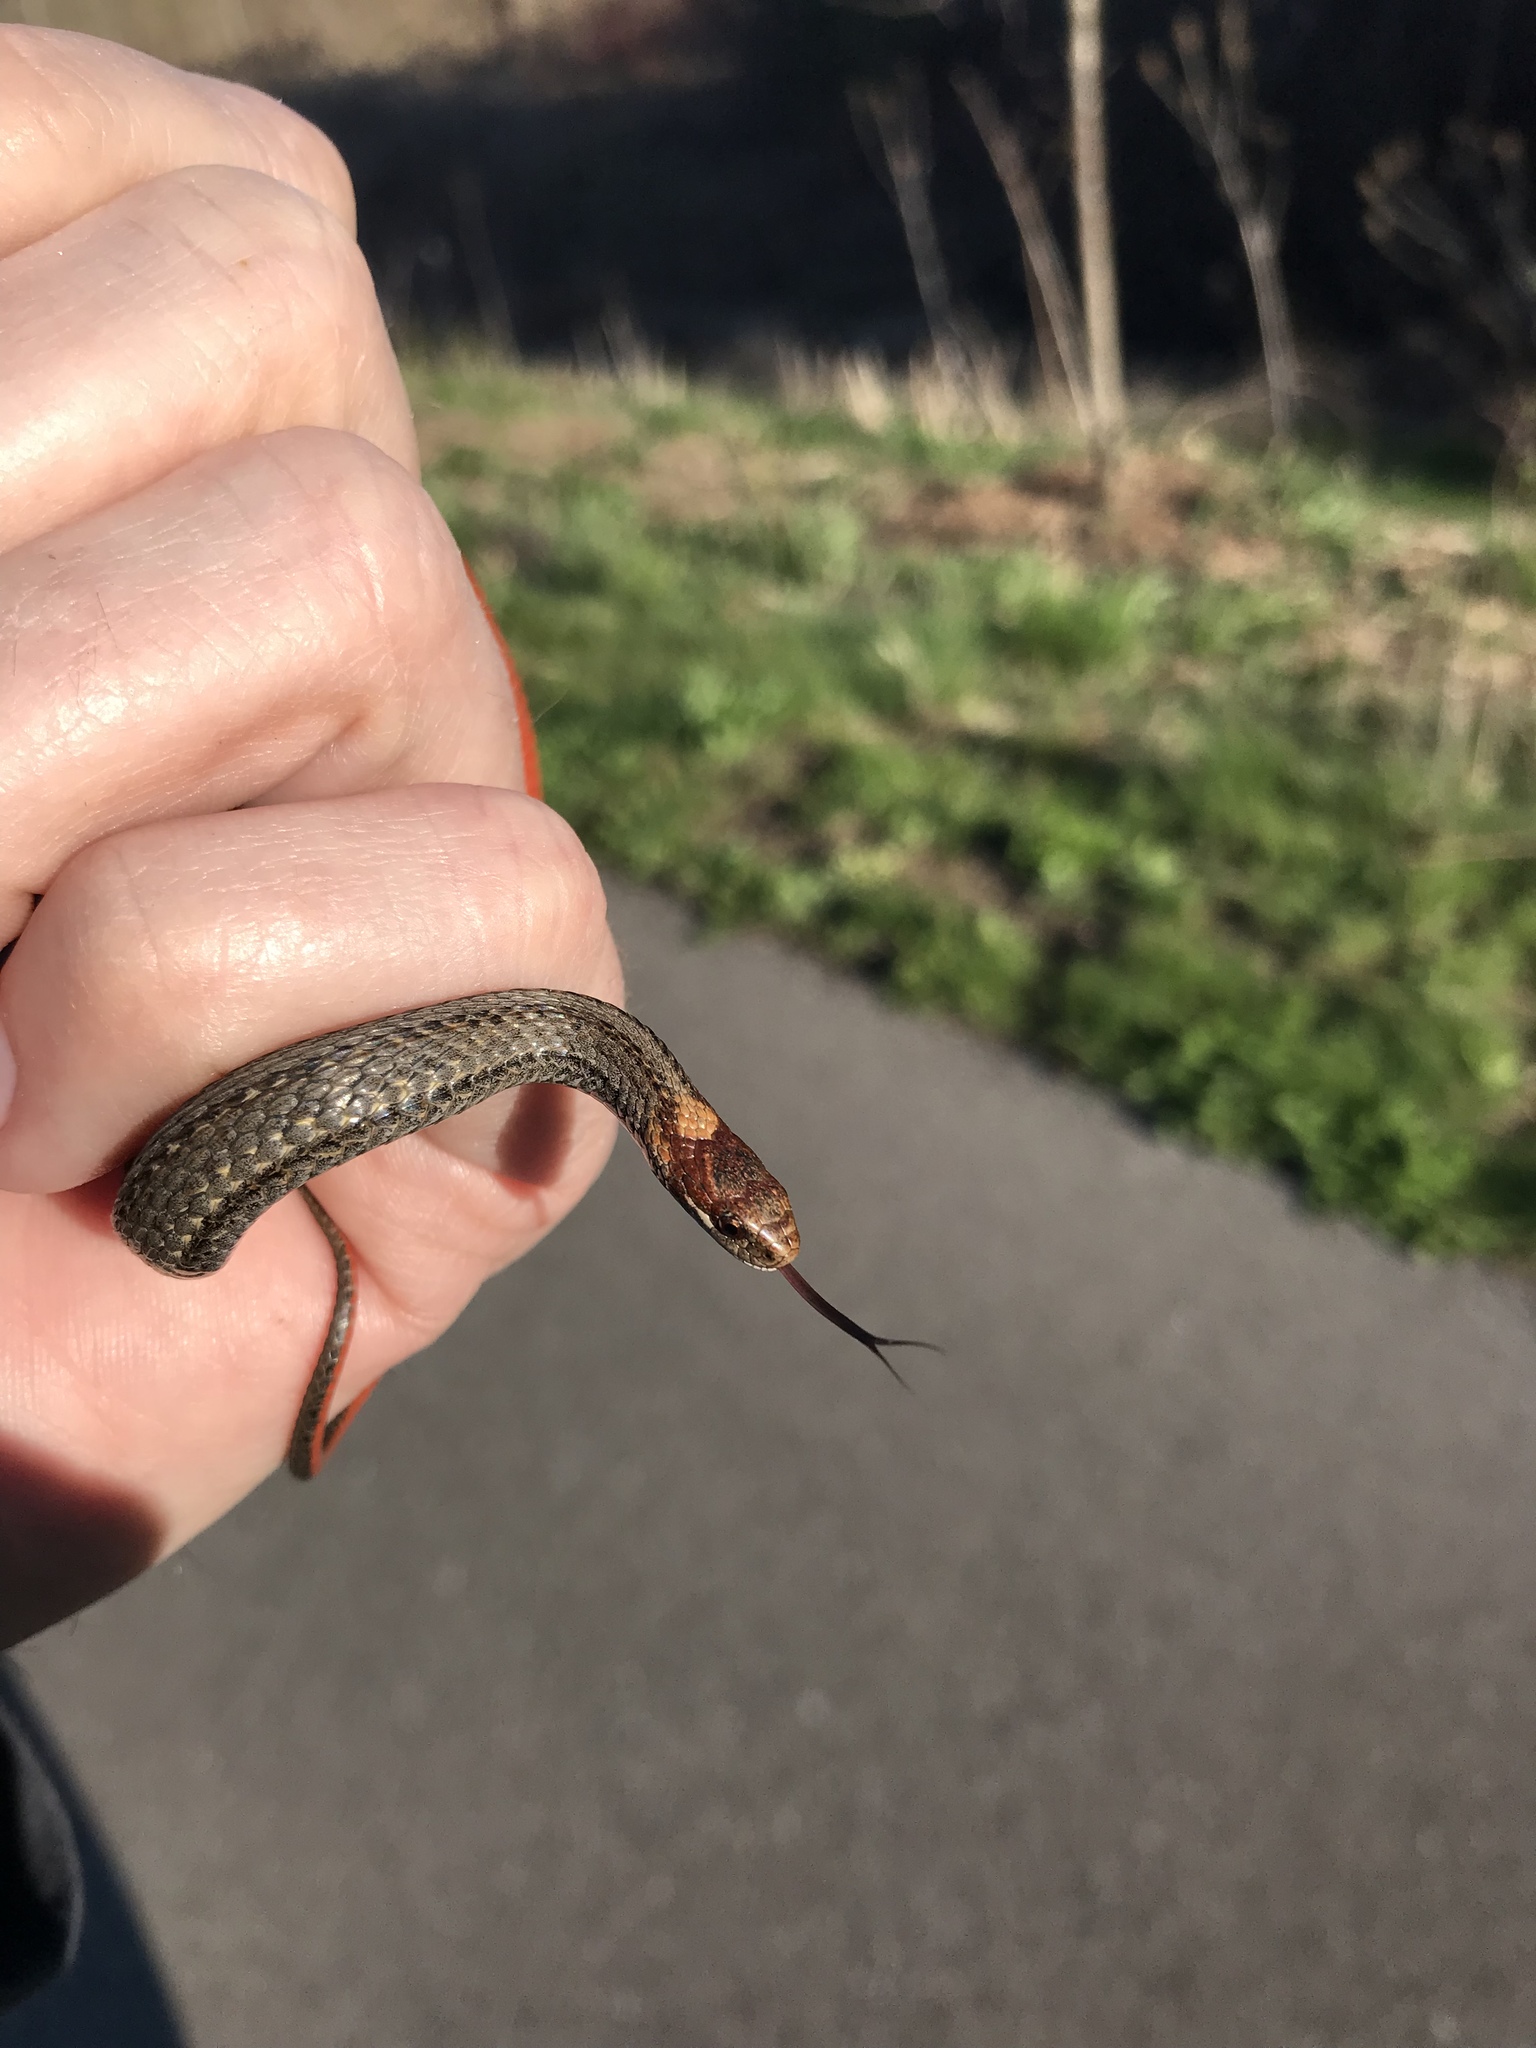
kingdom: Animalia
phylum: Chordata
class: Squamata
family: Colubridae
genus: Storeria
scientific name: Storeria occipitomaculata
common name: Redbelly snake
